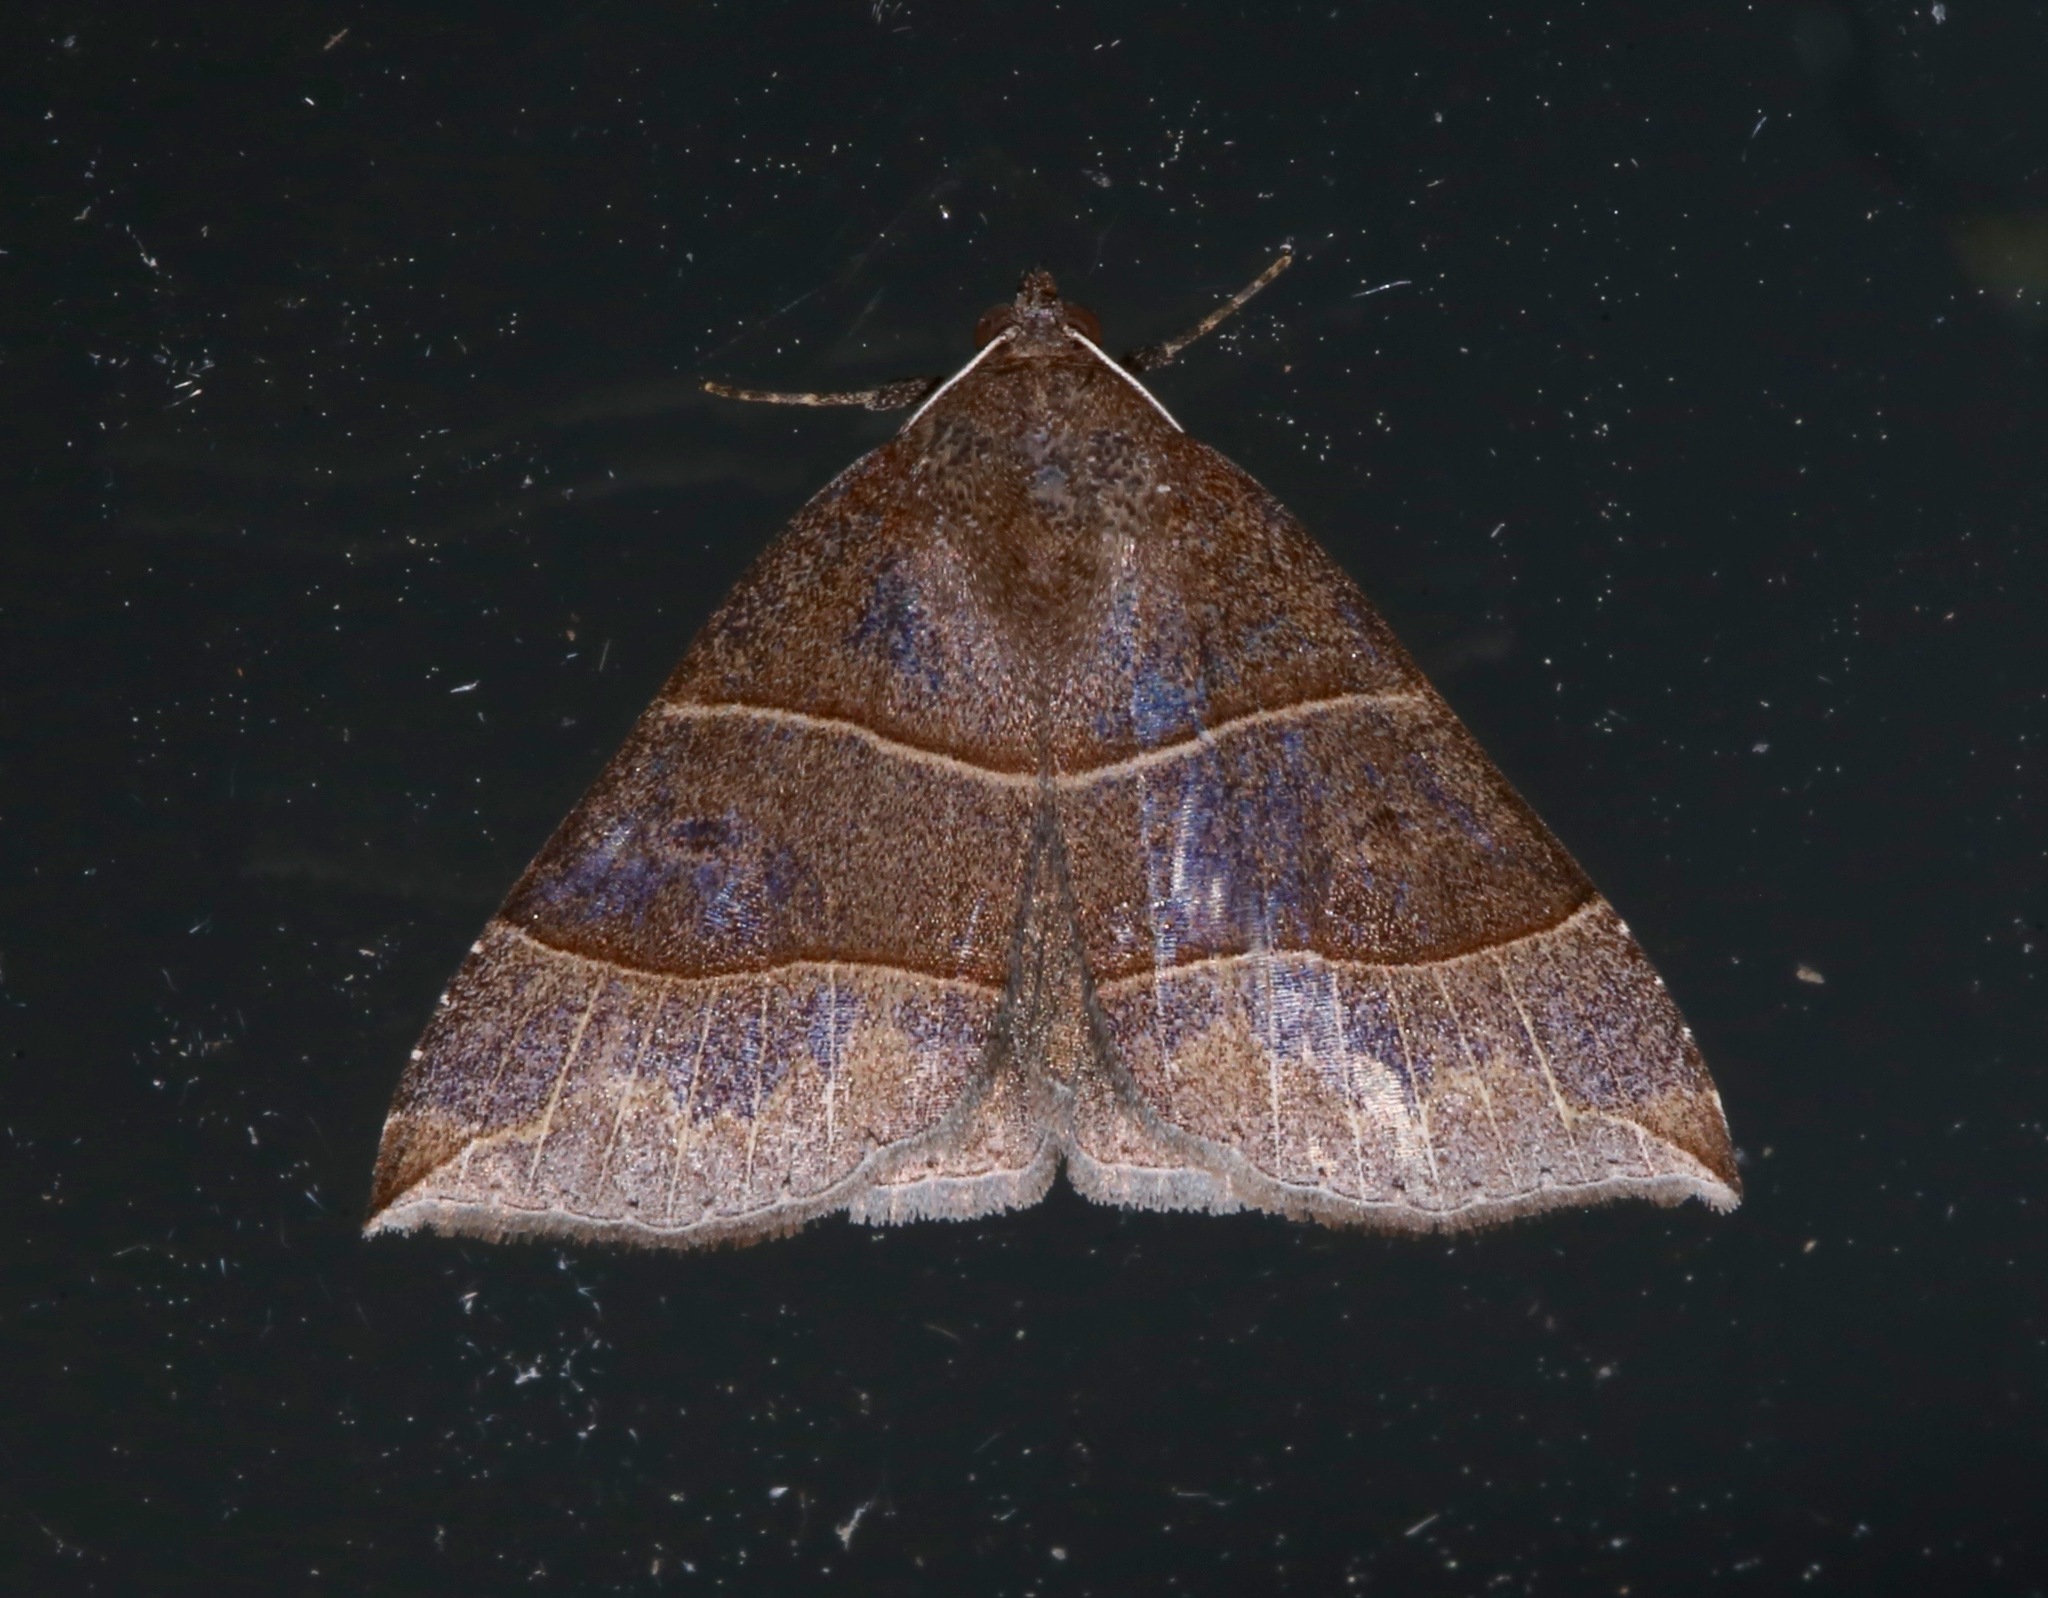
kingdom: Animalia
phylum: Arthropoda
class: Insecta
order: Lepidoptera
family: Erebidae
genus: Parallelia
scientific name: Parallelia bistriaris
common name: Maple looper moth
